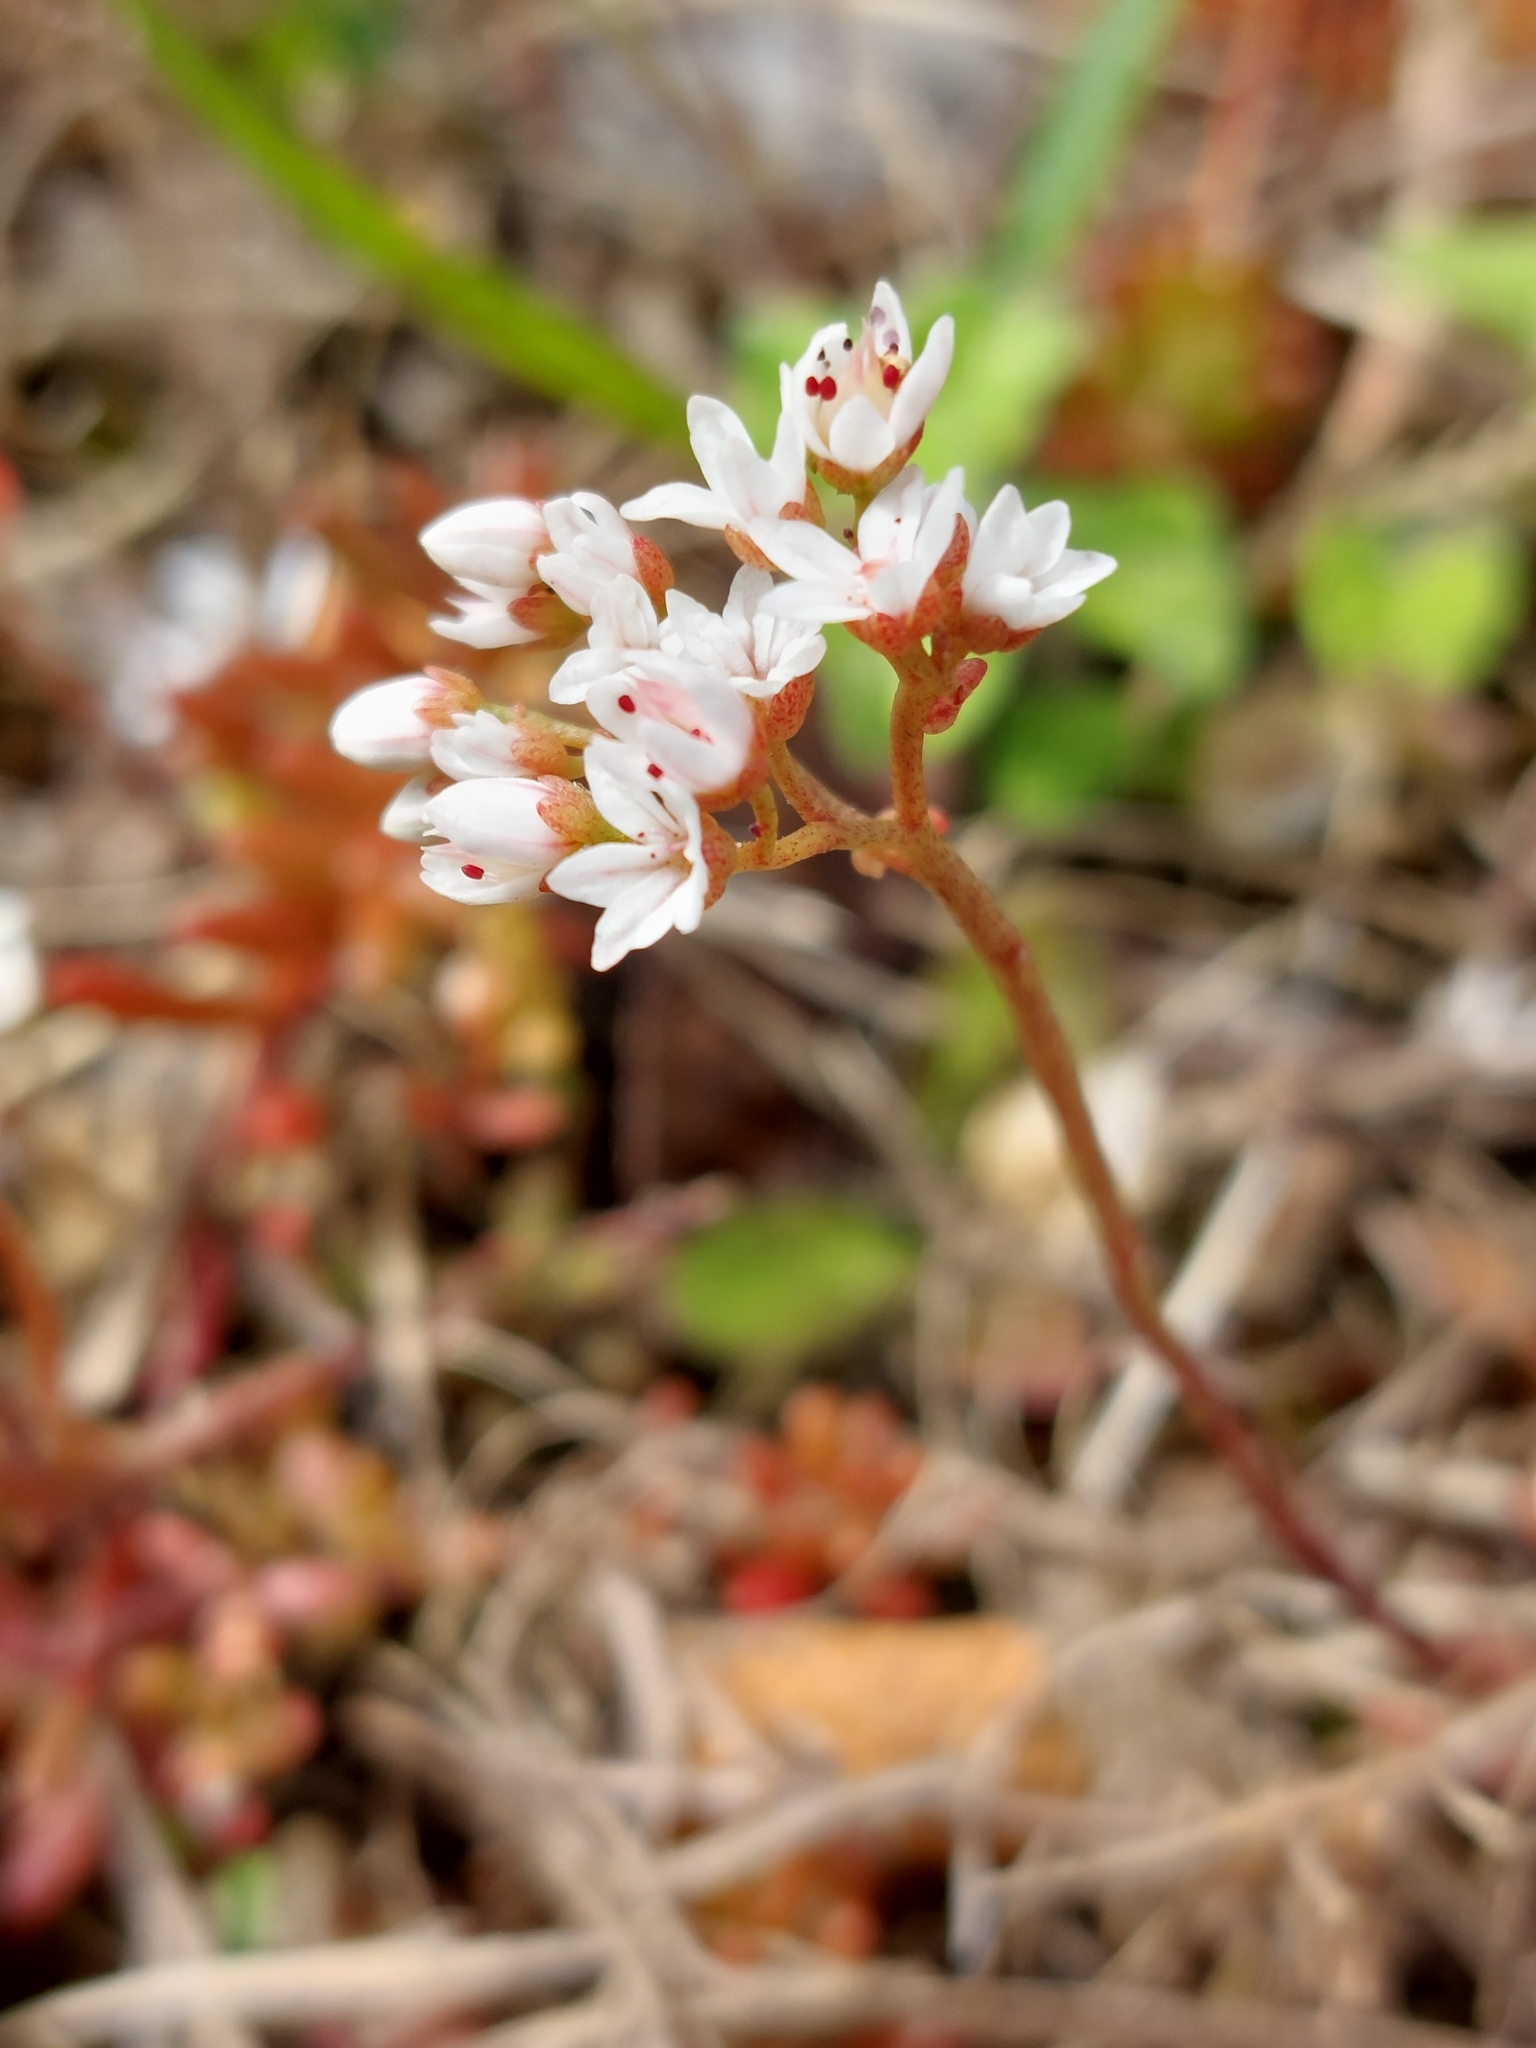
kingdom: Plantae
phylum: Tracheophyta
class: Magnoliopsida
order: Saxifragales
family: Crassulaceae
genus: Sedum
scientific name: Sedum album
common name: White stonecrop
